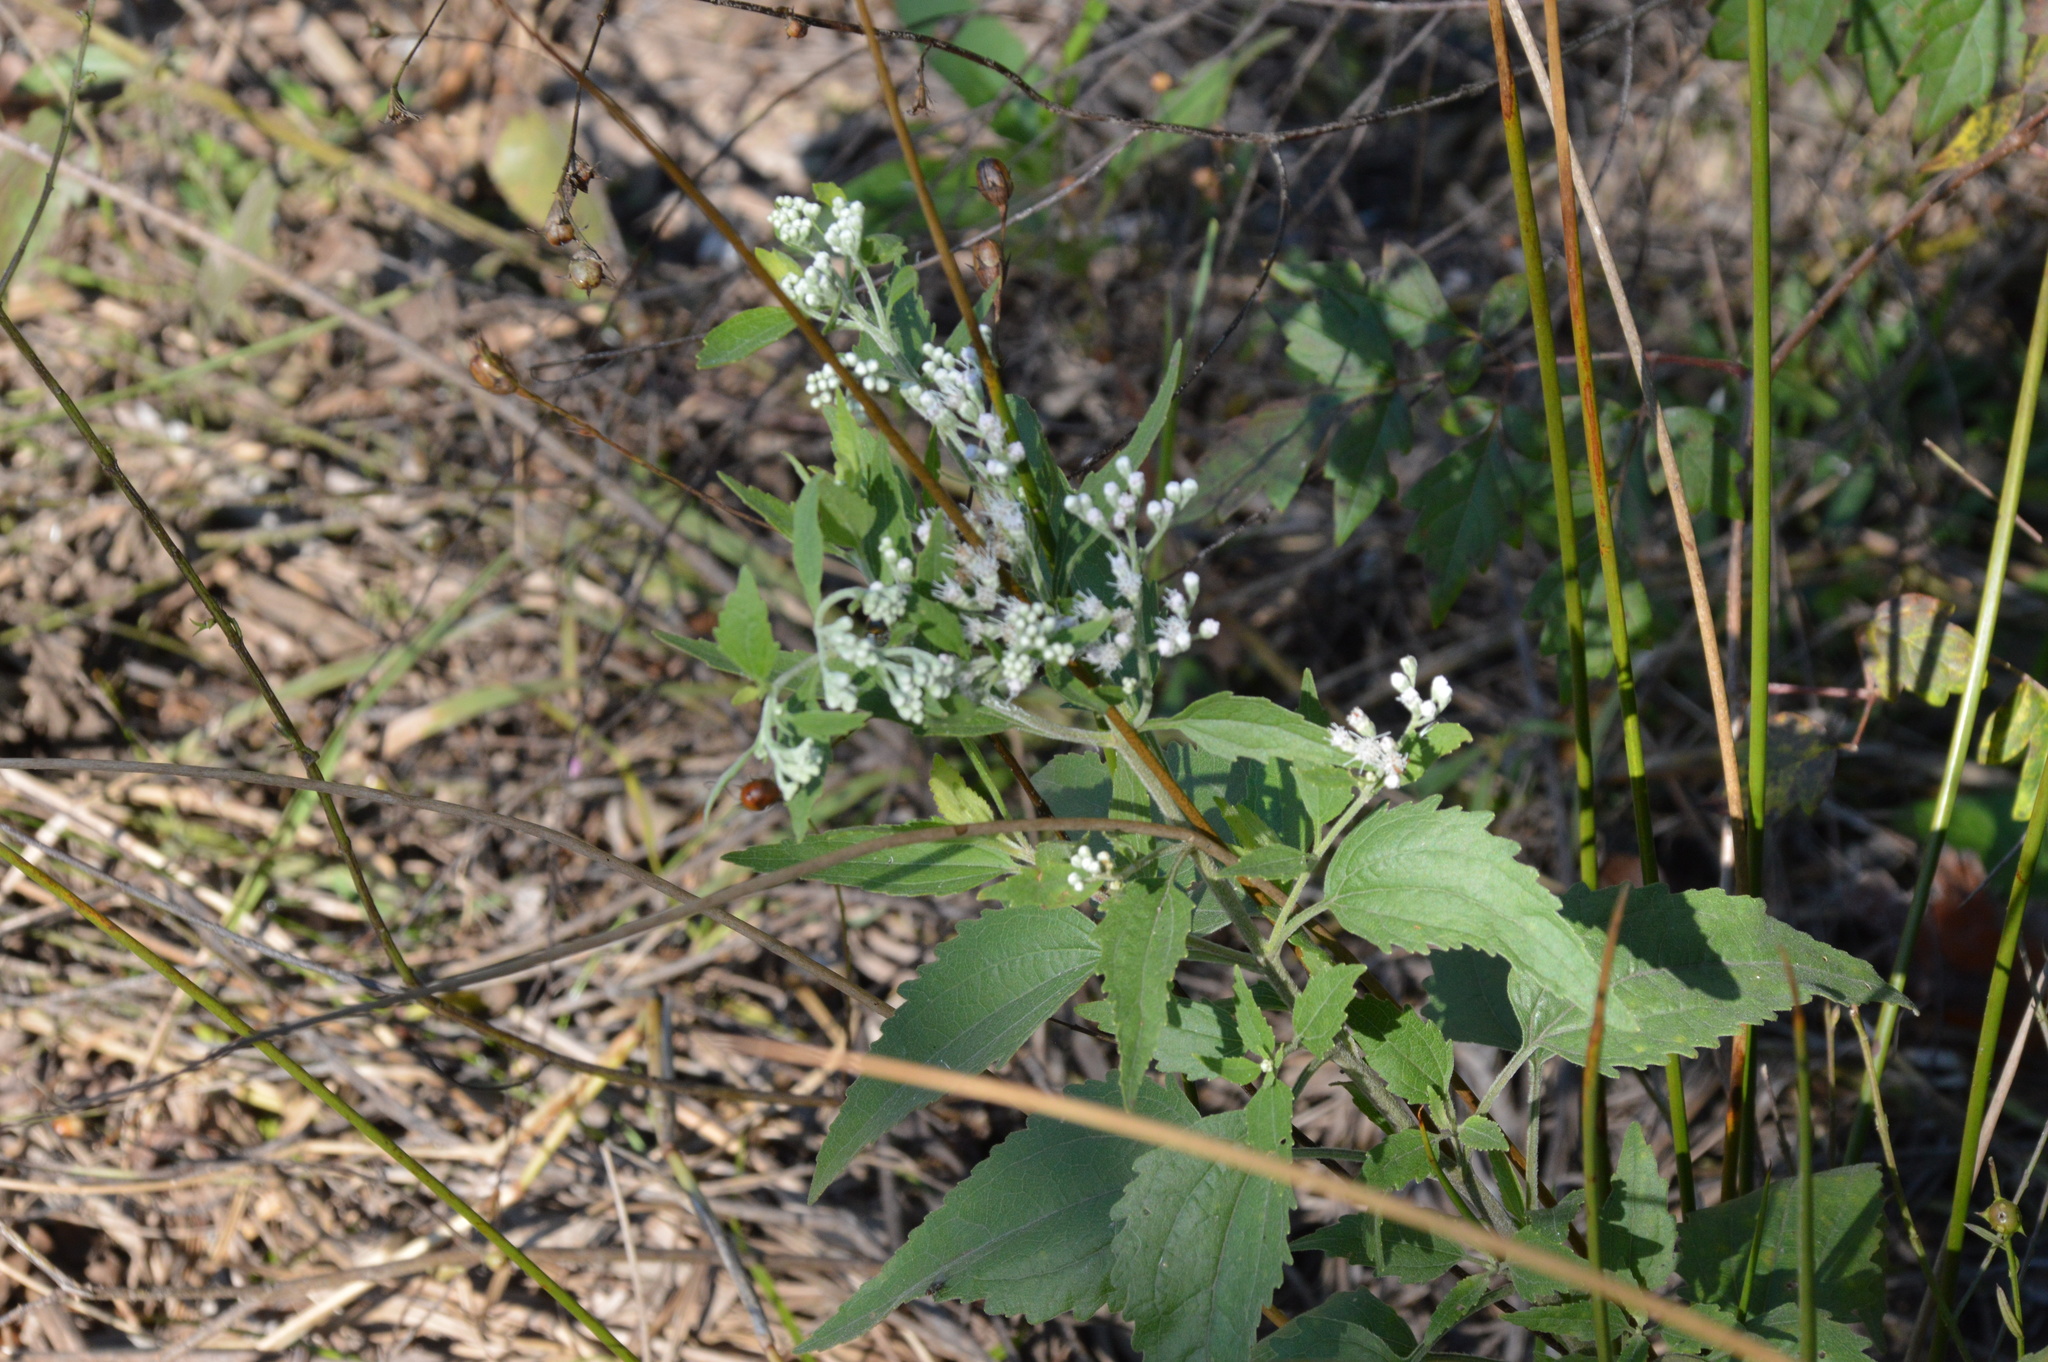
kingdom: Plantae
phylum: Tracheophyta
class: Magnoliopsida
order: Asterales
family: Asteraceae
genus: Eupatorium
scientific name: Eupatorium serotinum
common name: Late boneset
